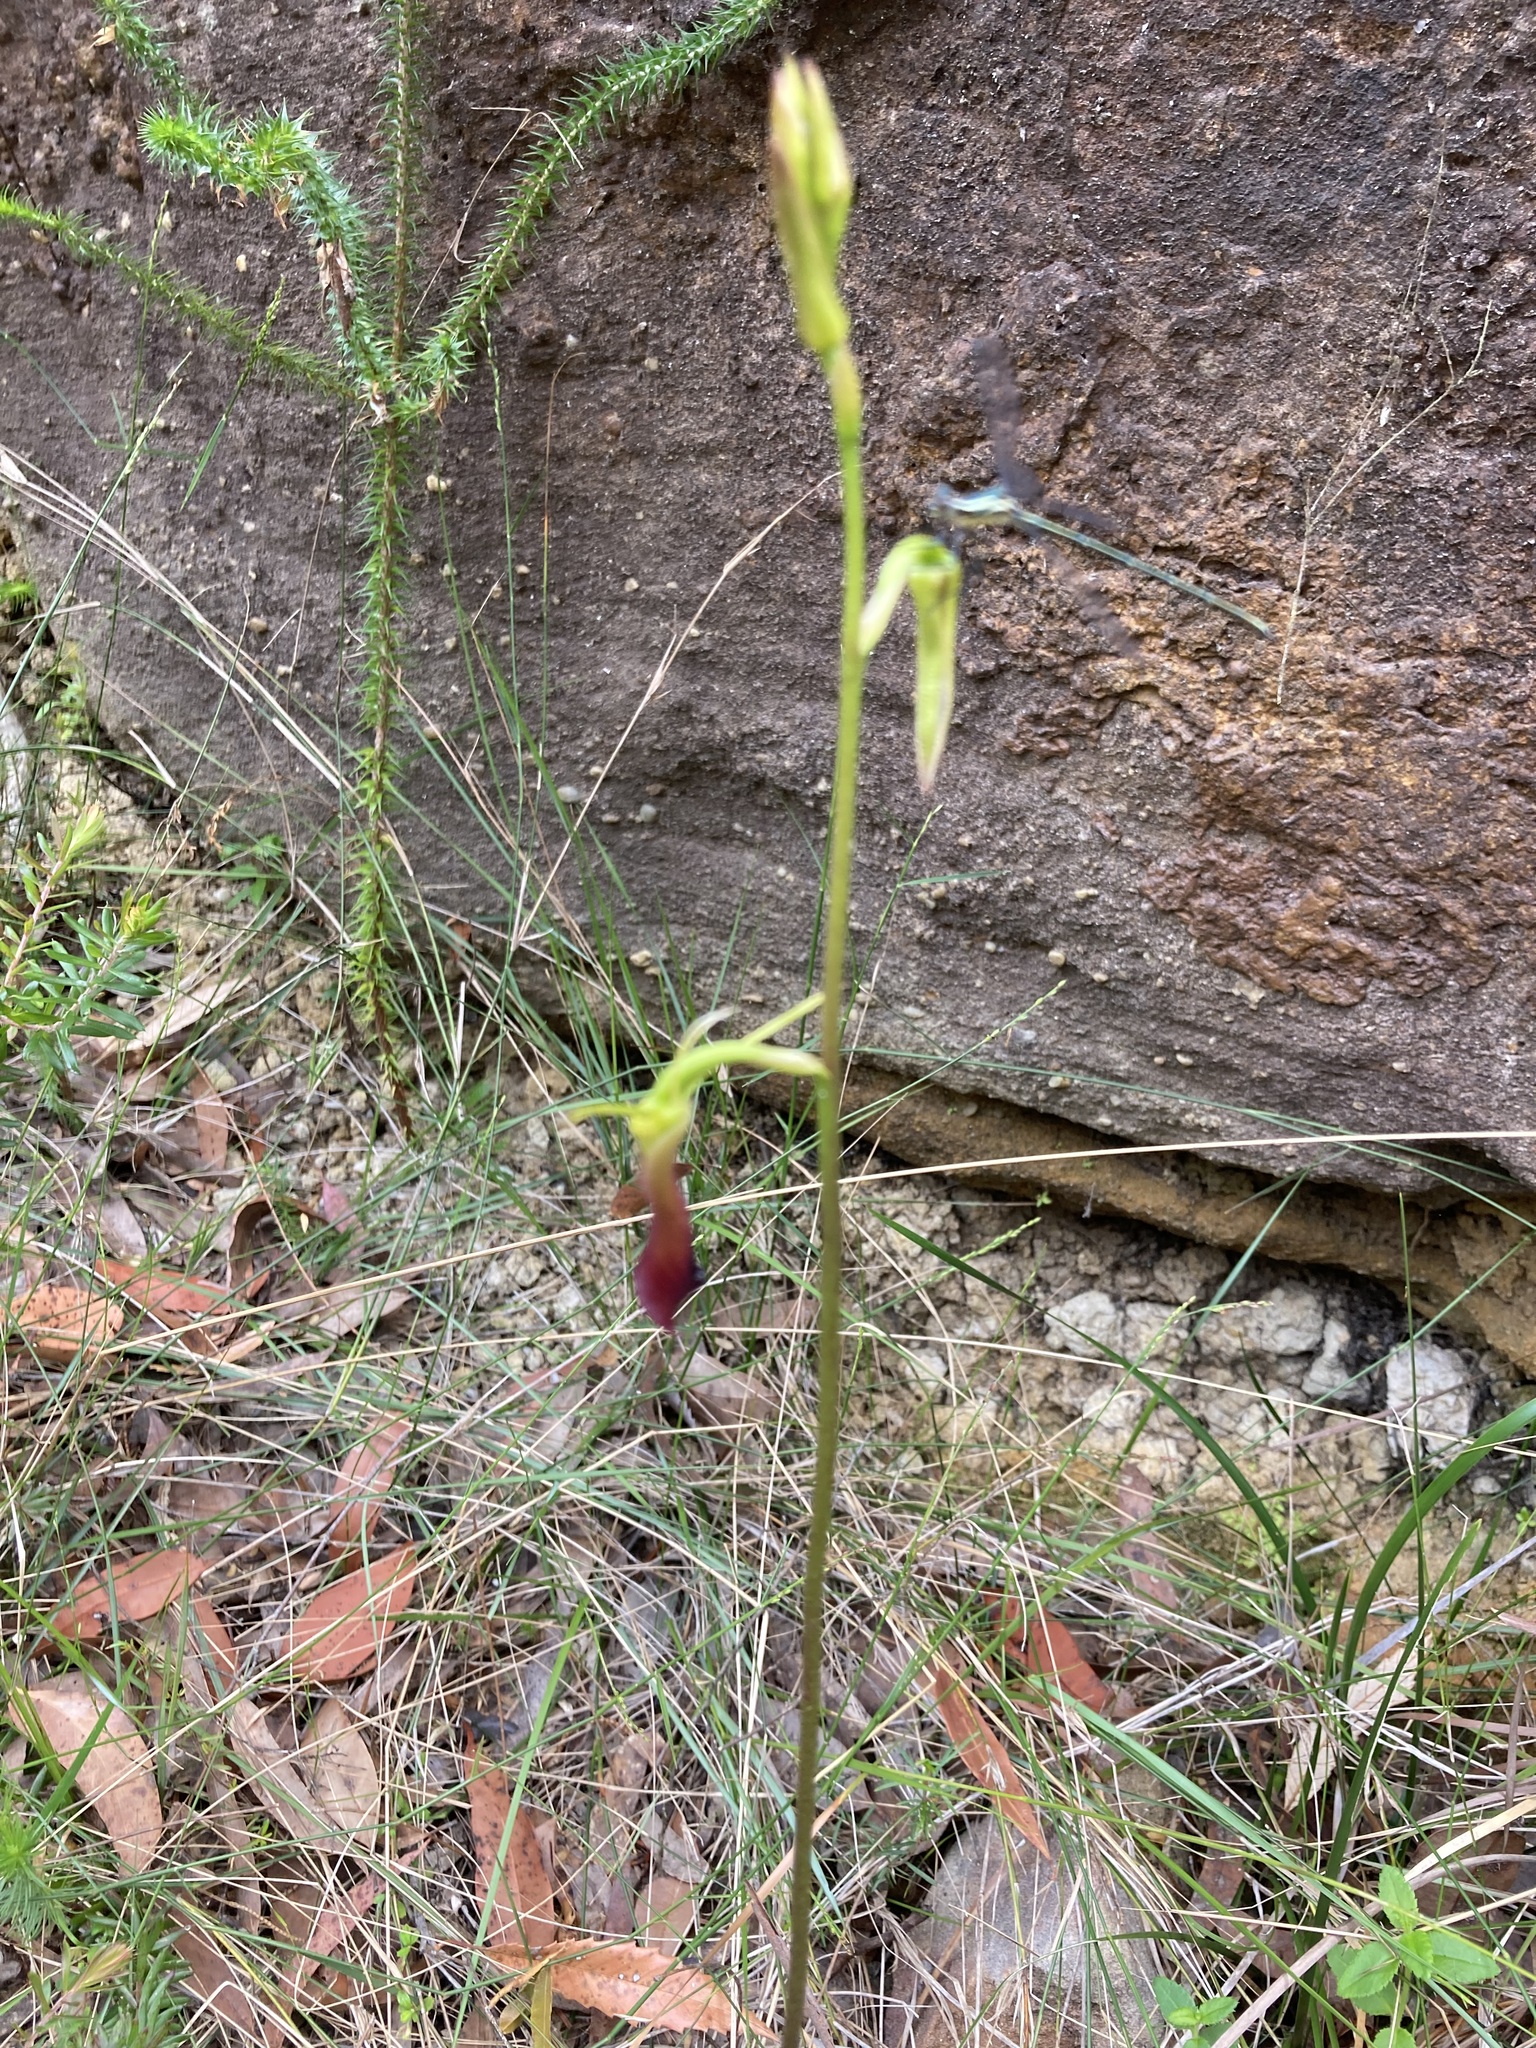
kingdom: Plantae
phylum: Tracheophyta
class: Liliopsida
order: Asparagales
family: Orchidaceae
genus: Cryptostylis
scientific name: Cryptostylis subulata
